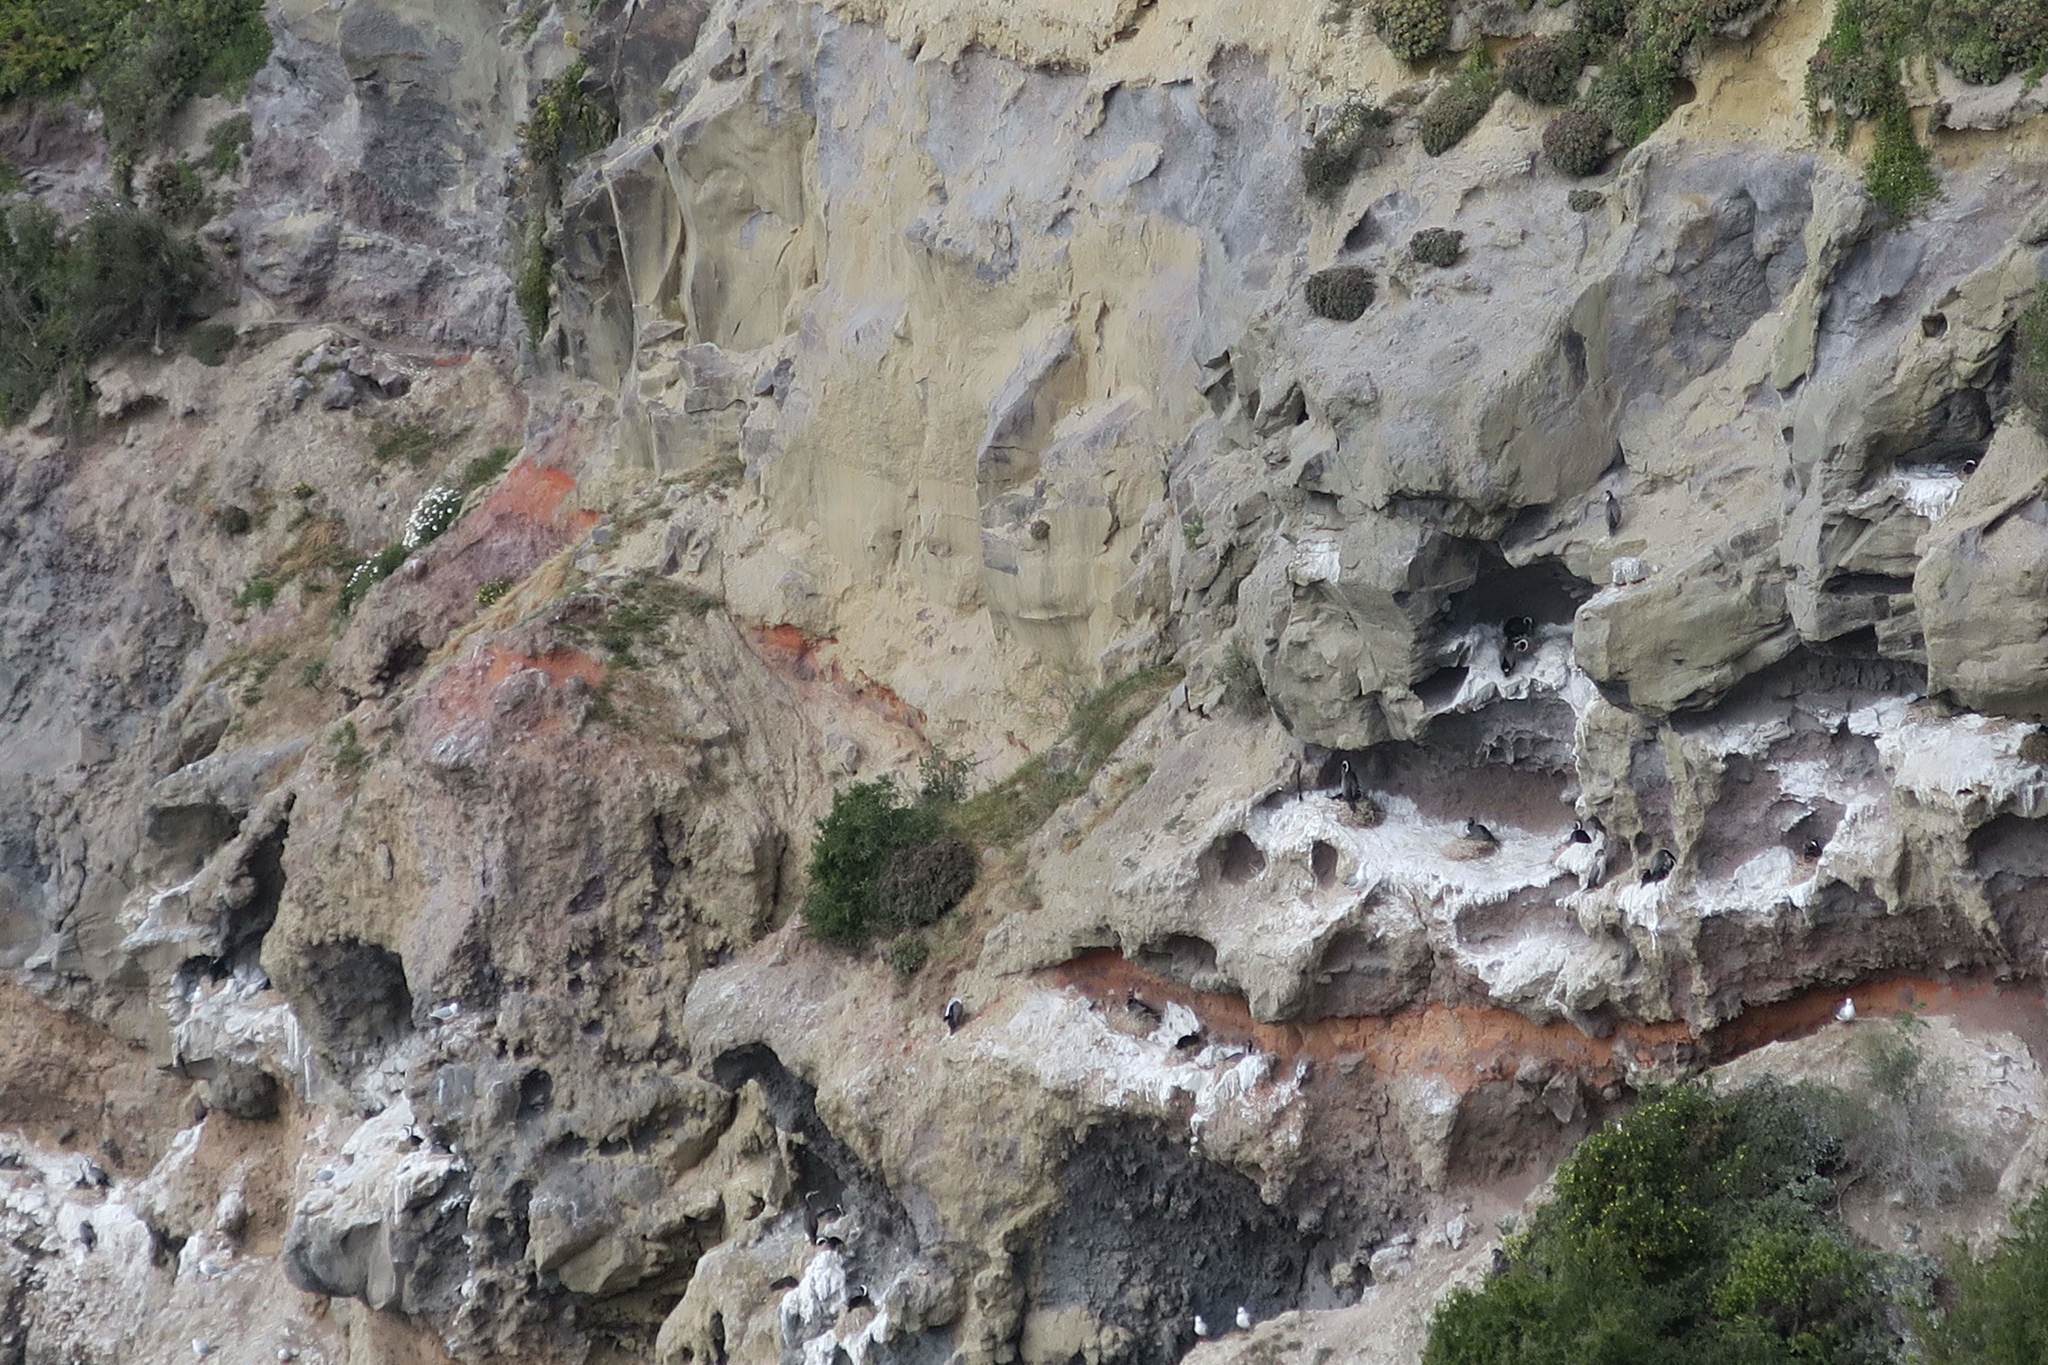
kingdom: Animalia
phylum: Chordata
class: Aves
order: Suliformes
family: Phalacrocoracidae
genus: Phalacrocorax
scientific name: Phalacrocorax punctatus
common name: Spotted shag
